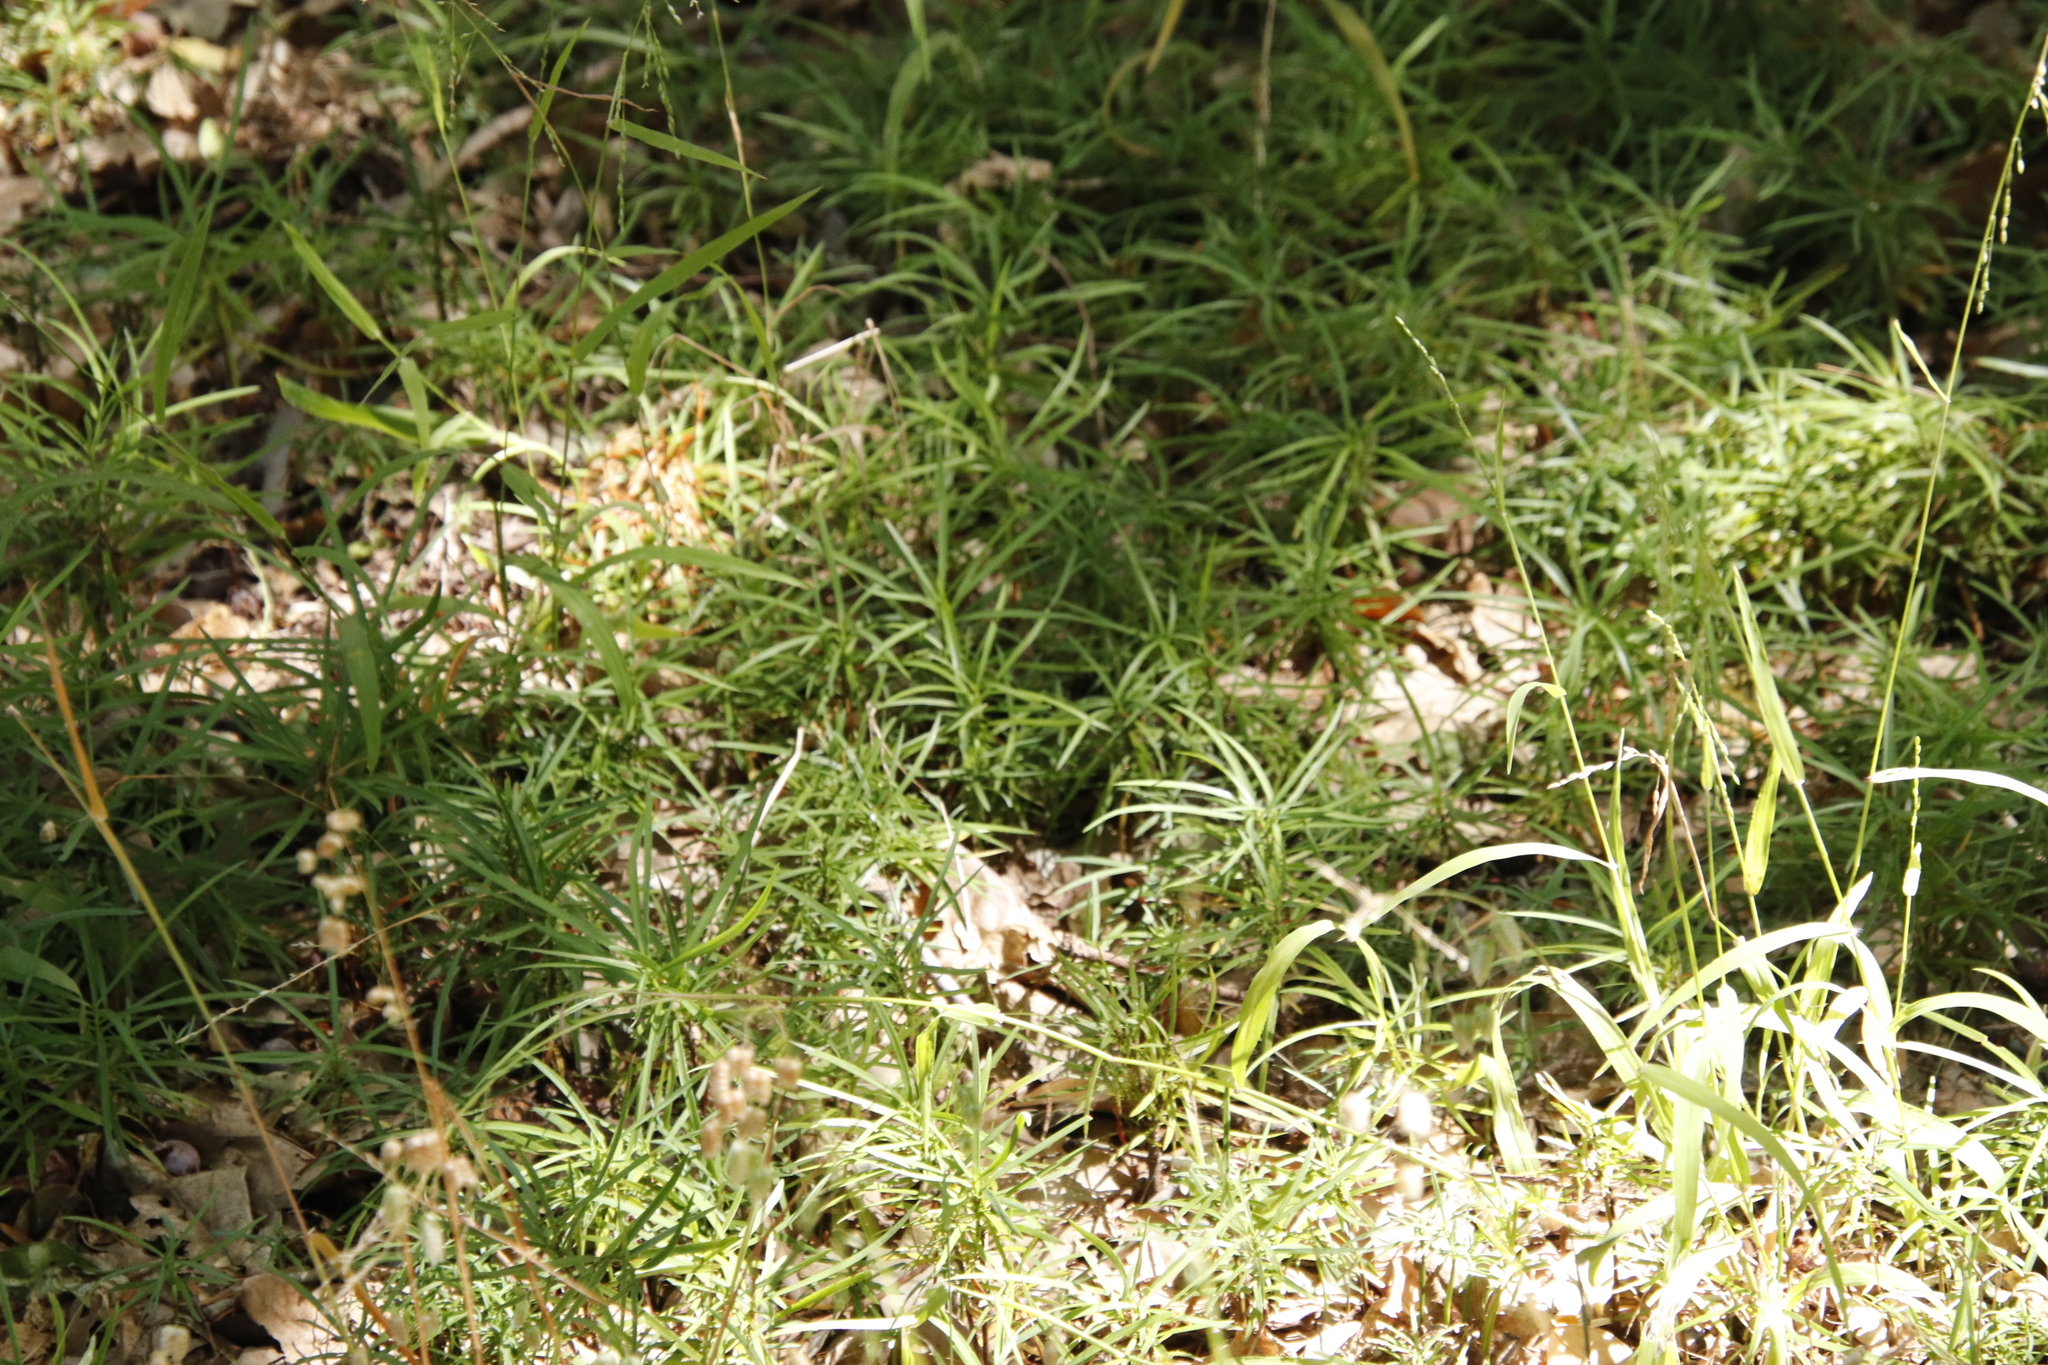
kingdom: Plantae
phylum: Tracheophyta
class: Pinopsida
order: Pinales
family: Podocarpaceae
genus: Afrocarpus
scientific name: Afrocarpus falcatus
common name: Bastard yellowwood
